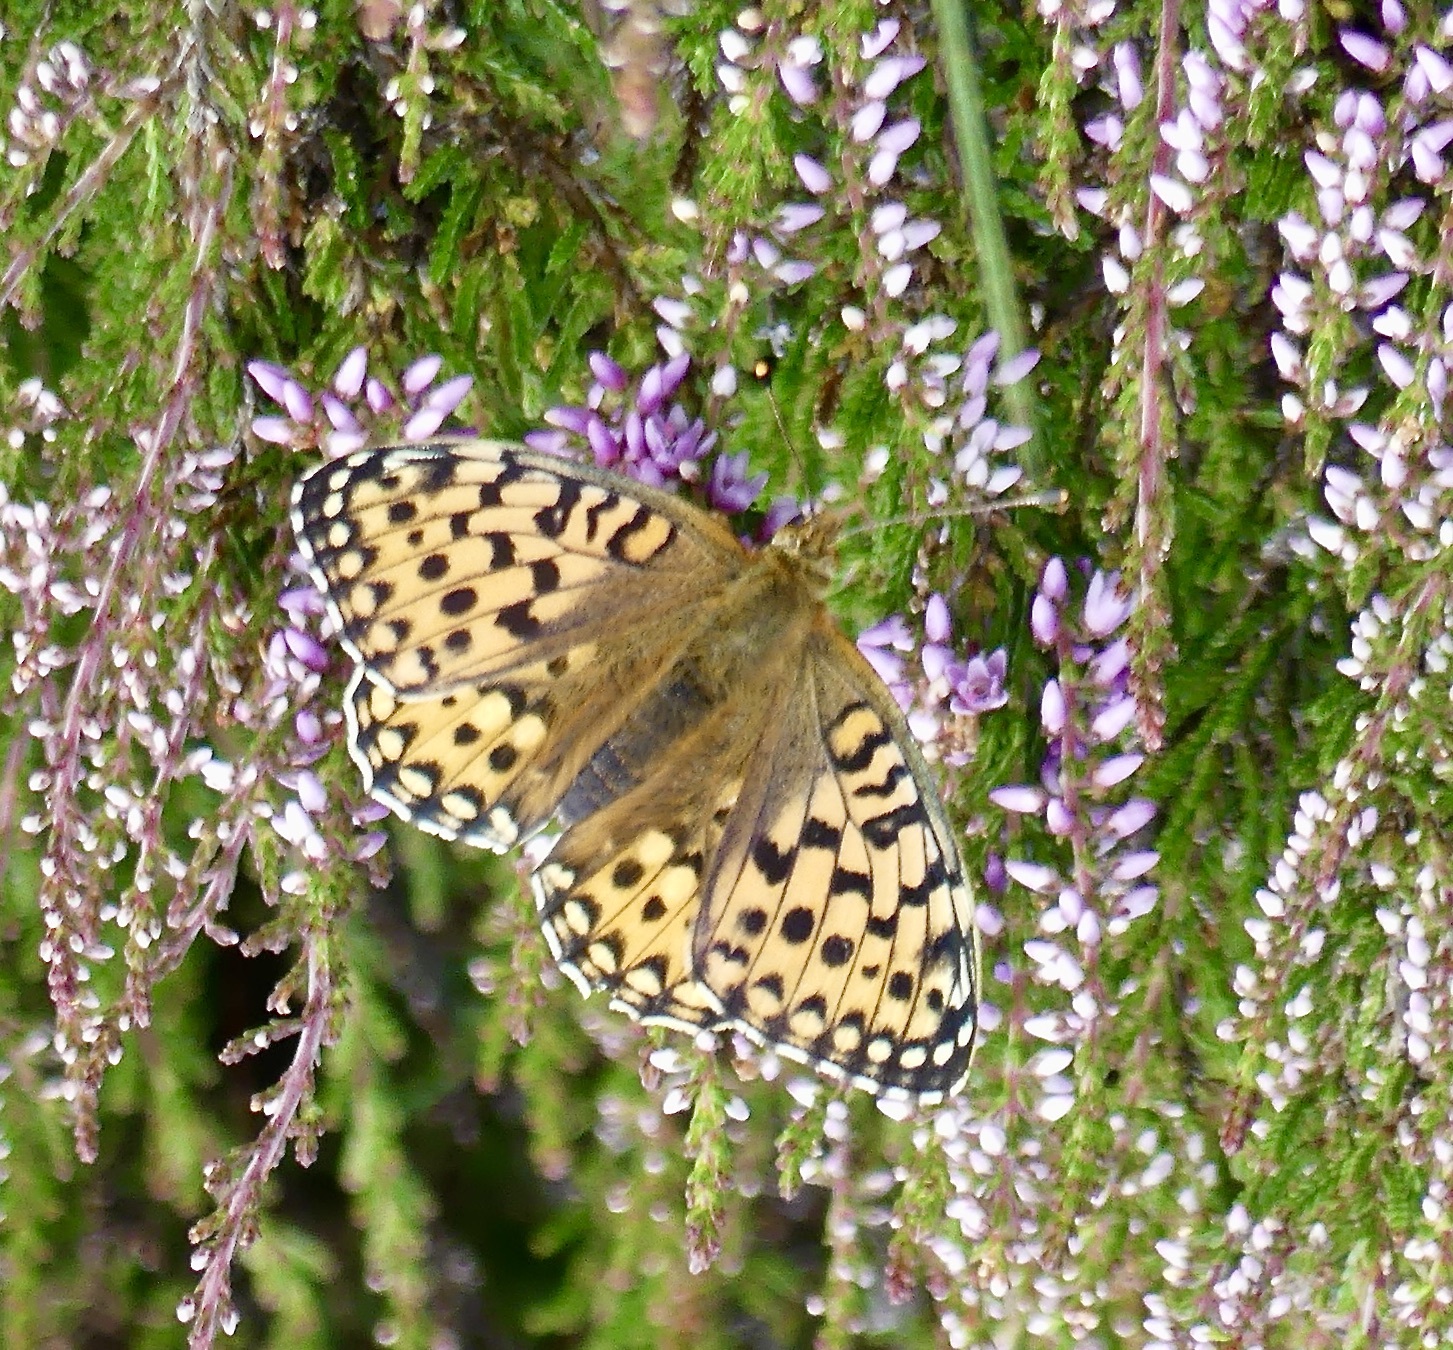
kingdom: Animalia
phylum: Arthropoda
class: Insecta
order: Lepidoptera
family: Nymphalidae
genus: Speyeria
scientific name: Speyeria aglaja
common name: Dark green fritillary
